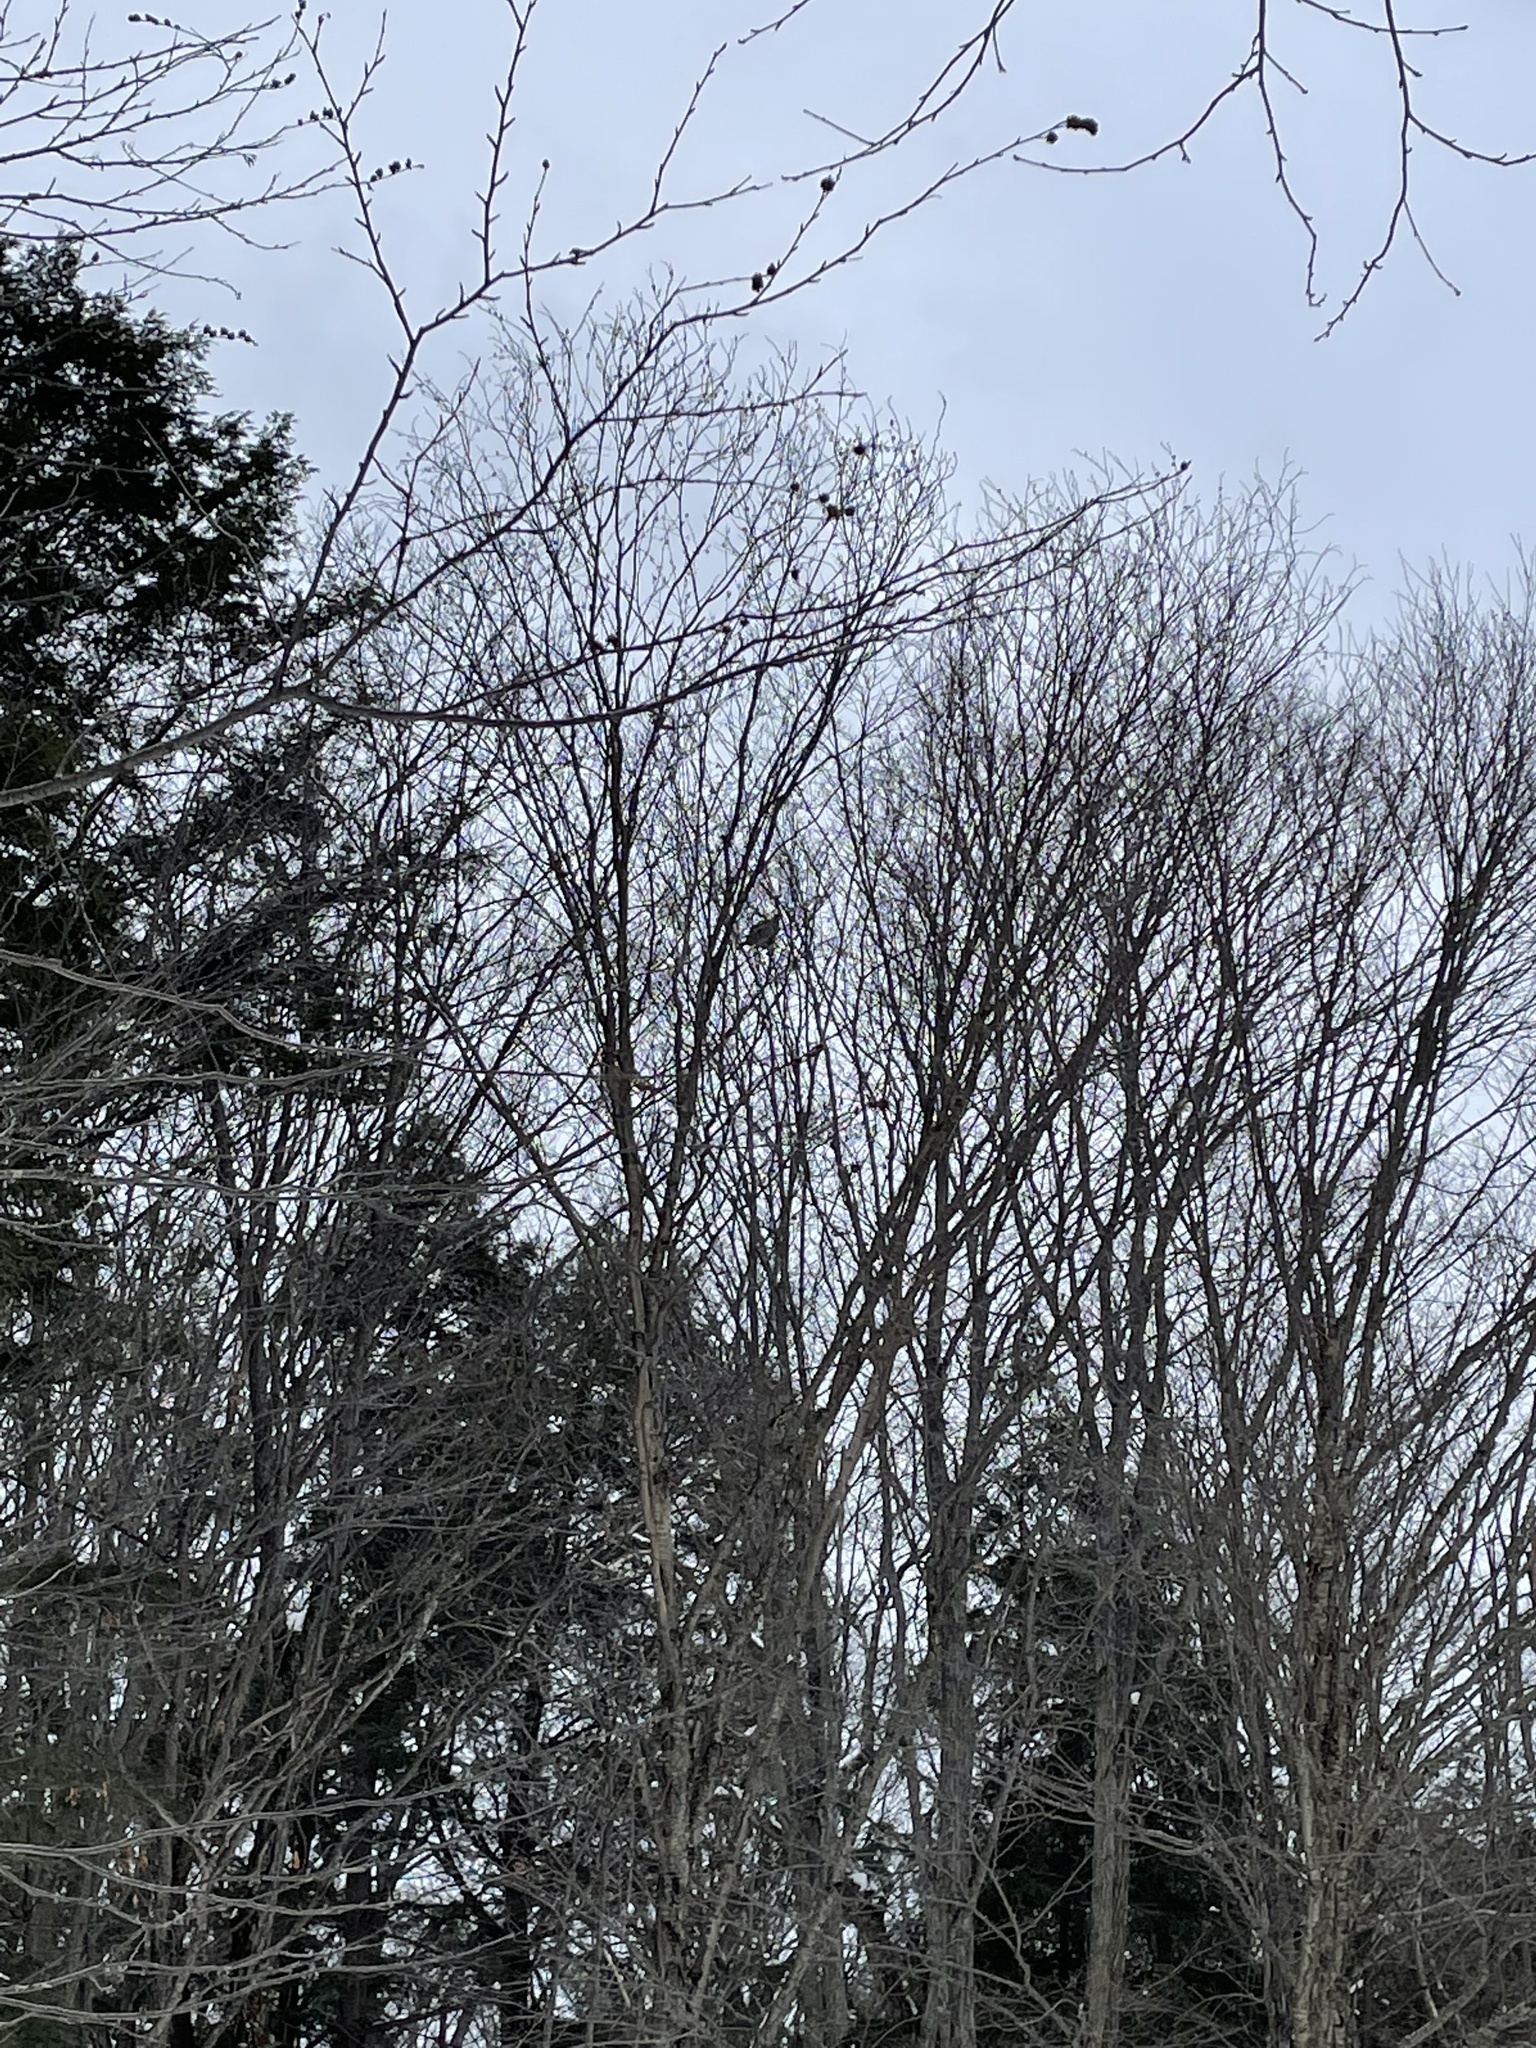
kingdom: Animalia
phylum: Chordata
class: Aves
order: Galliformes
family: Phasianidae
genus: Bonasa
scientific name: Bonasa umbellus
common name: Ruffed grouse
